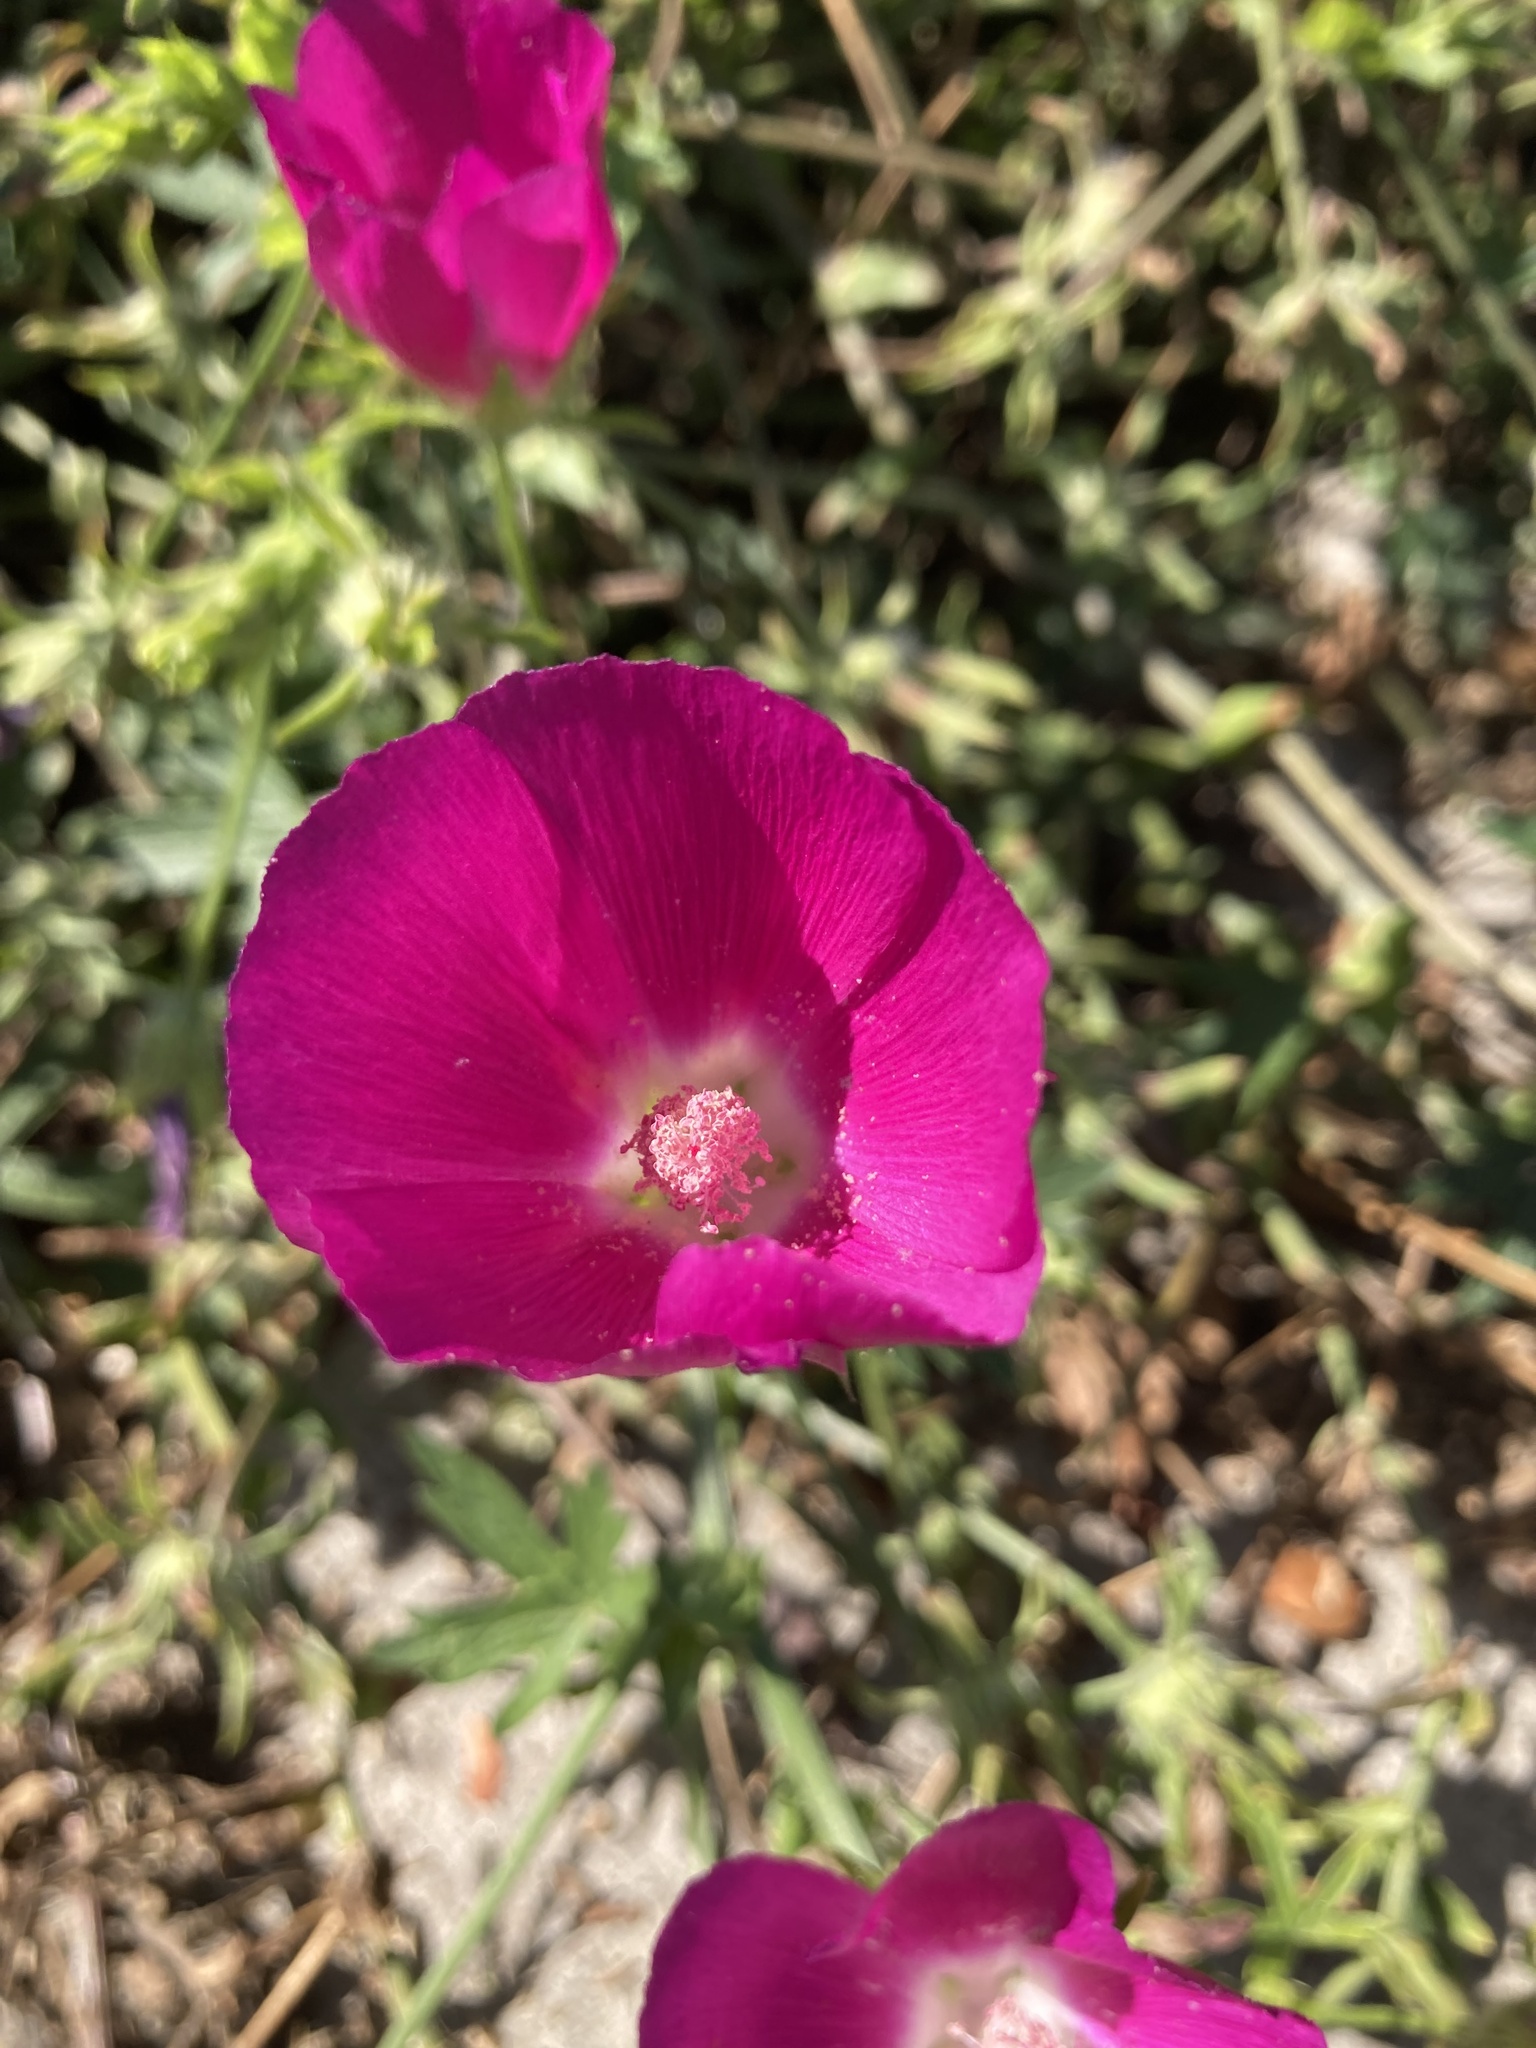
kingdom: Plantae
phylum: Tracheophyta
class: Magnoliopsida
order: Malvales
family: Malvaceae
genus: Callirhoe
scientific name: Callirhoe involucrata
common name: Purple poppy-mallow
